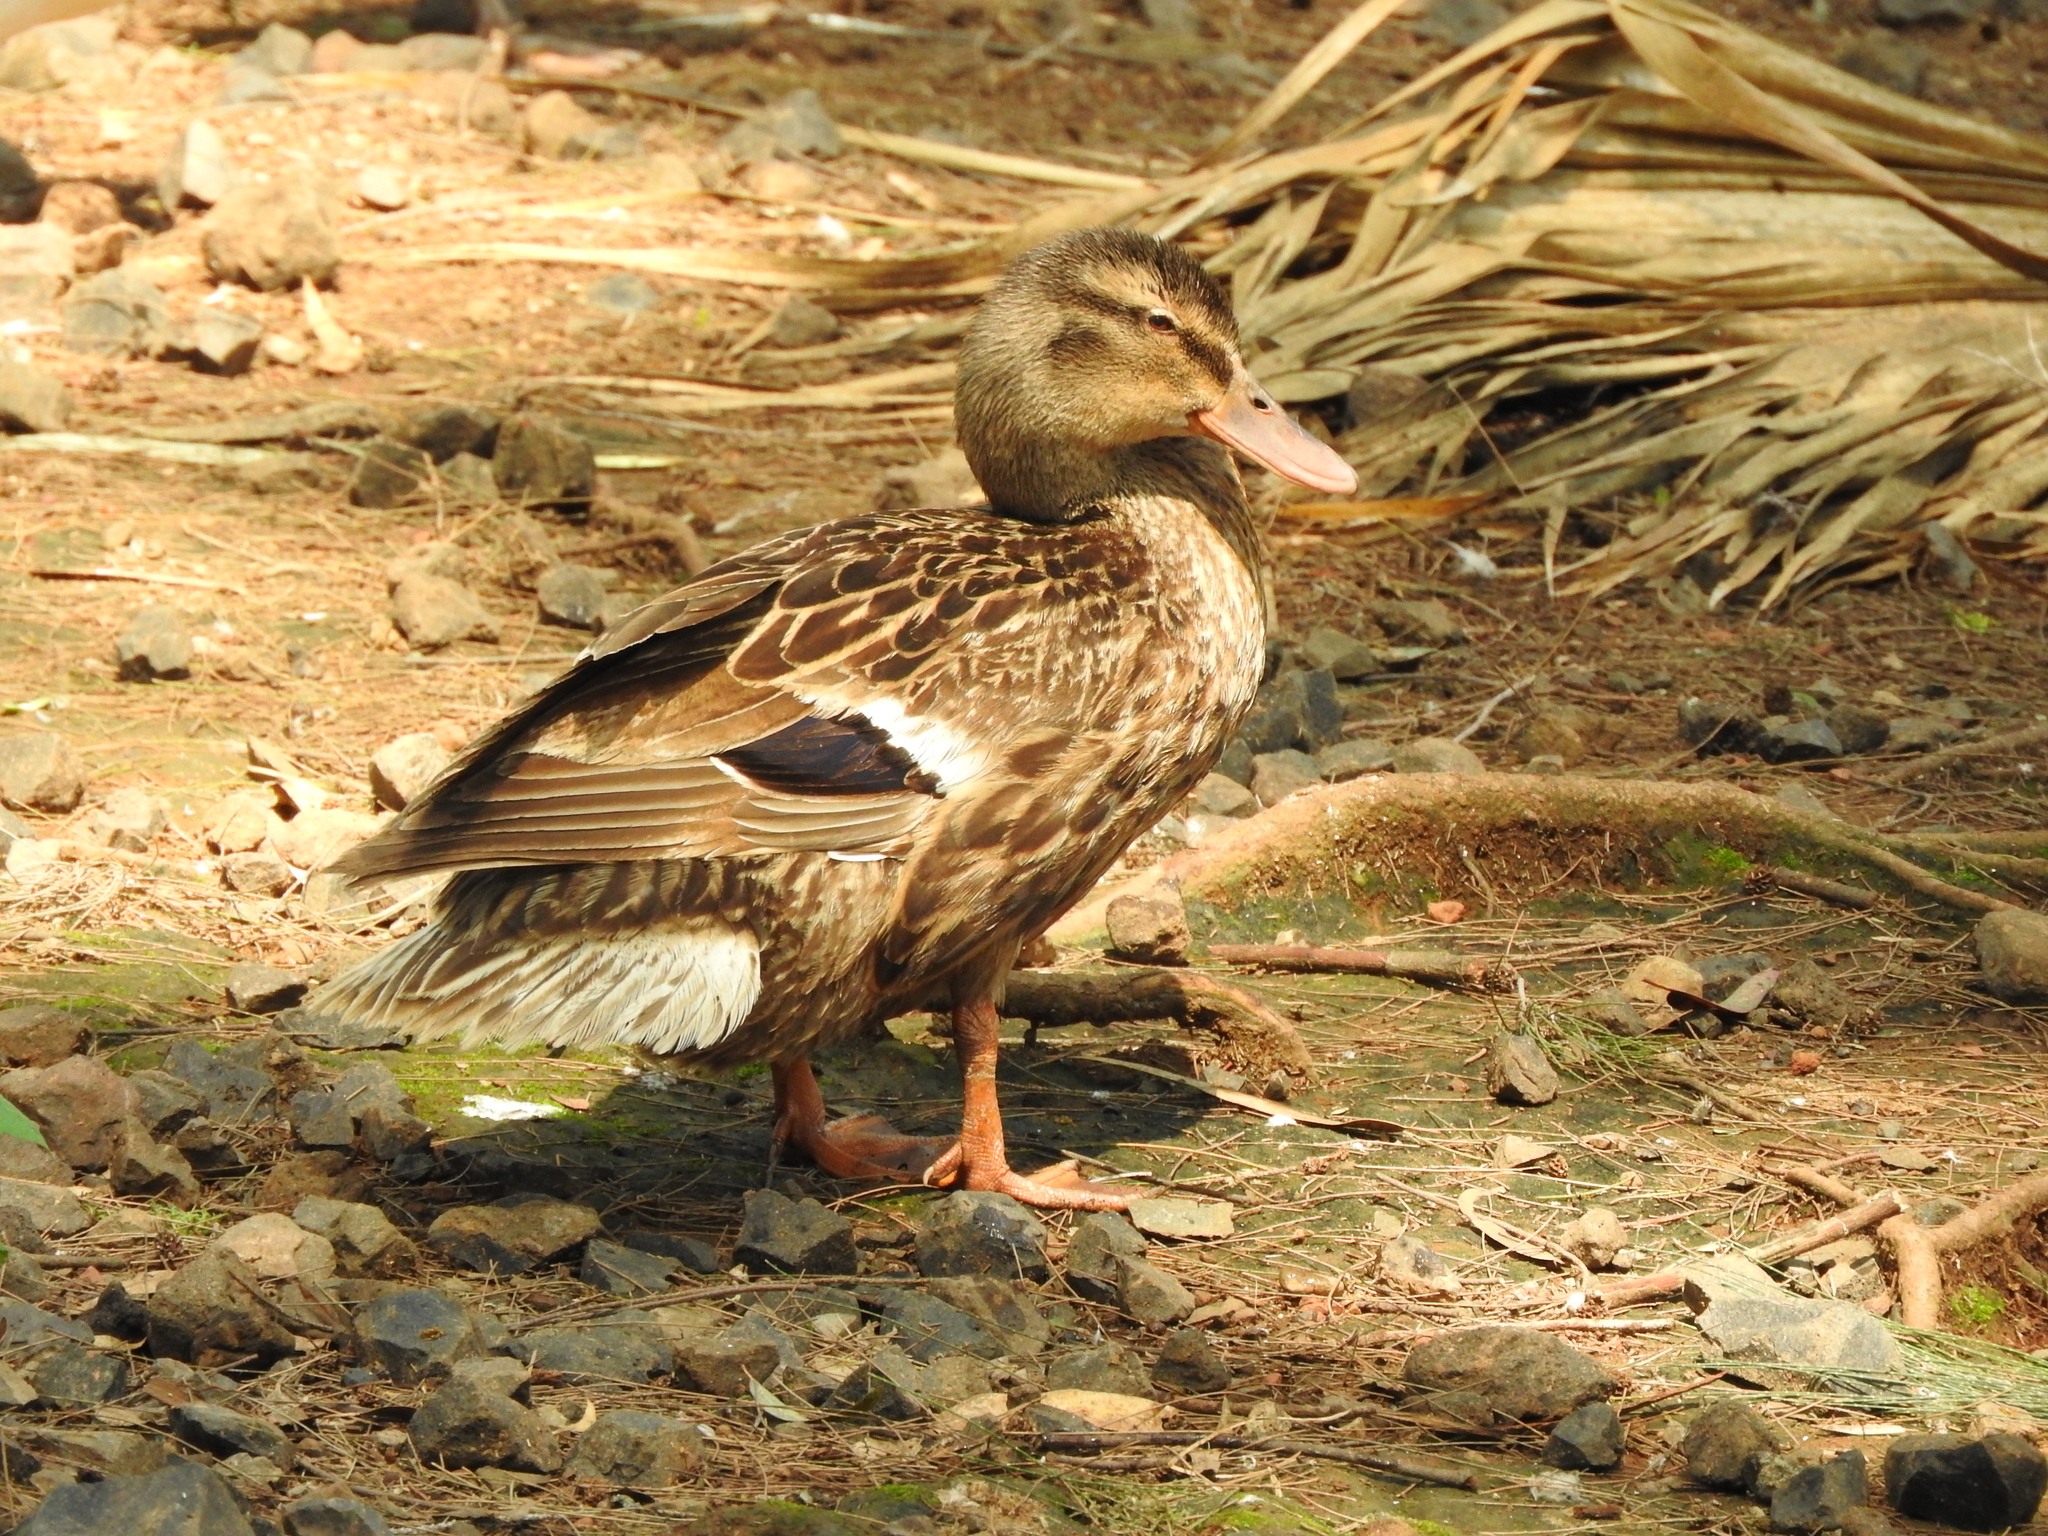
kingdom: Animalia
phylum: Chordata
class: Aves
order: Anseriformes
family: Anatidae
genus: Anas
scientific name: Anas platyrhynchos
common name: Mallard
